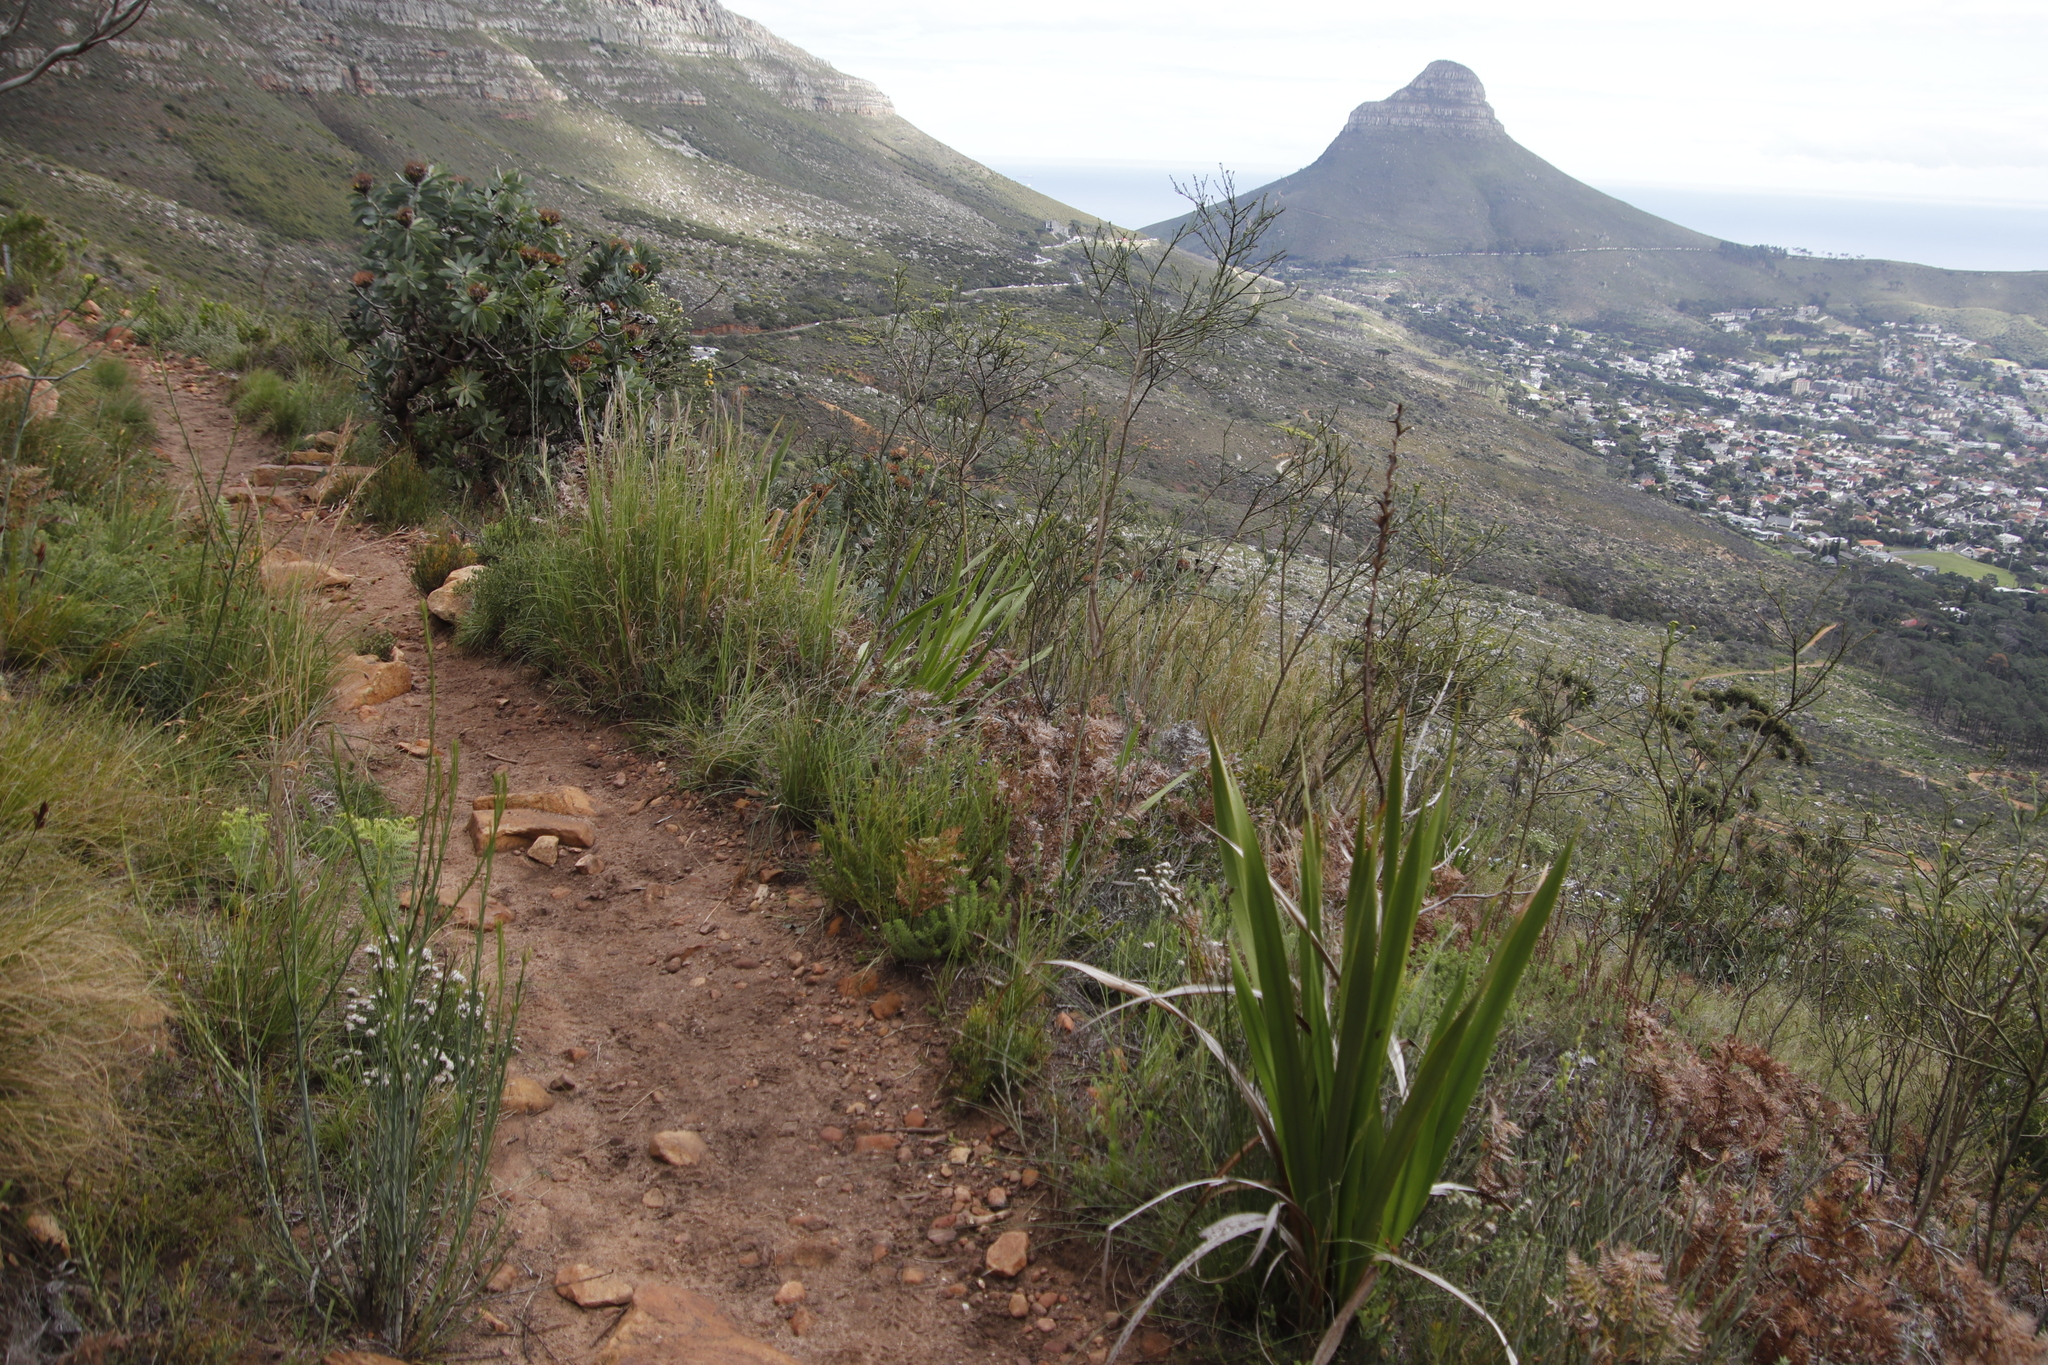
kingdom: Plantae
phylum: Tracheophyta
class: Magnoliopsida
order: Santalales
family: Thesiaceae
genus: Thesium
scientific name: Thesium strictum
